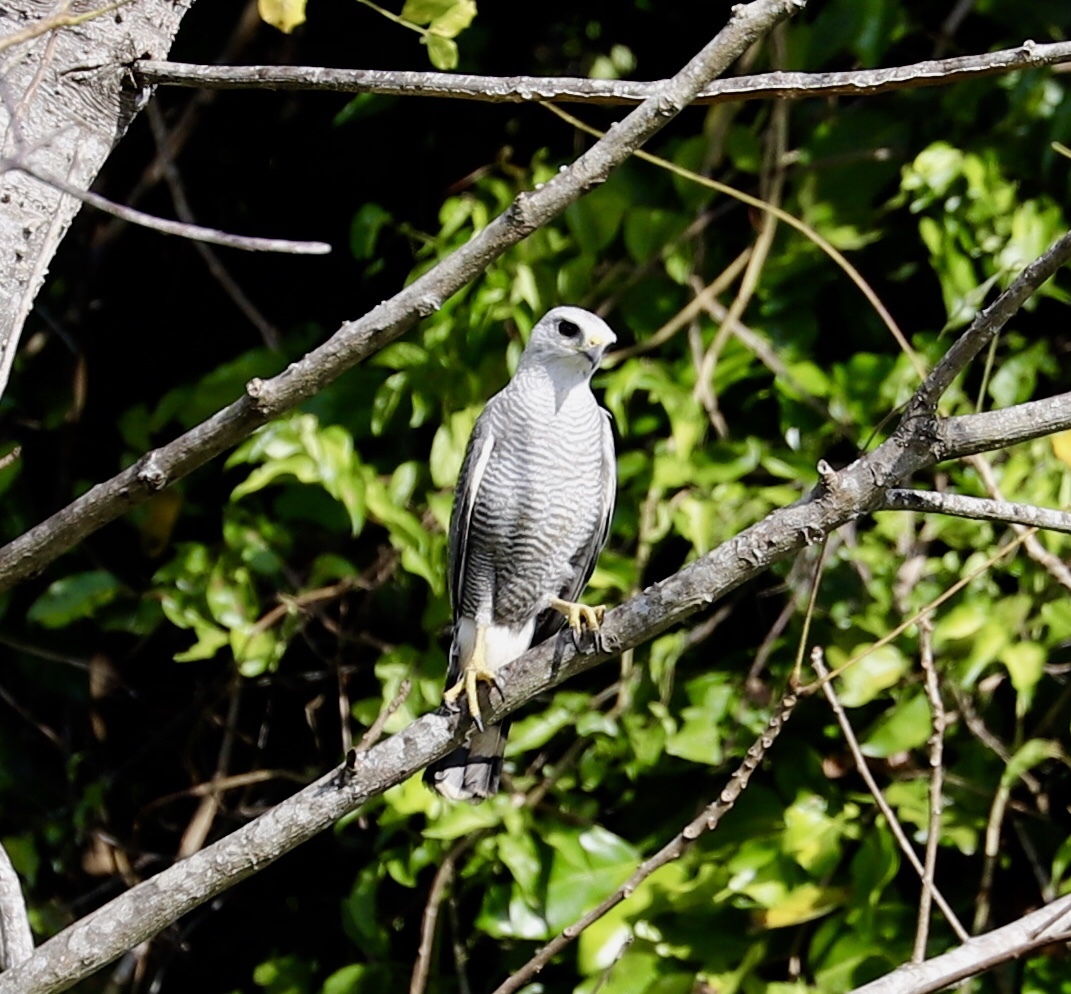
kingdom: Animalia
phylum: Chordata
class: Aves
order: Accipitriformes
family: Accipitridae
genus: Buteo
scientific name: Buteo nitidus
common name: Grey-lined hawk
